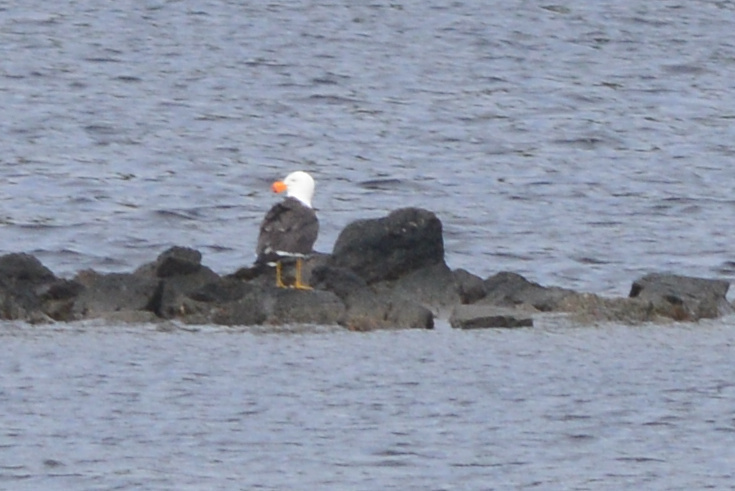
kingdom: Animalia
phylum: Chordata
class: Aves
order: Charadriiformes
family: Laridae
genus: Larus
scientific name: Larus pacificus
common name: Pacific gull
